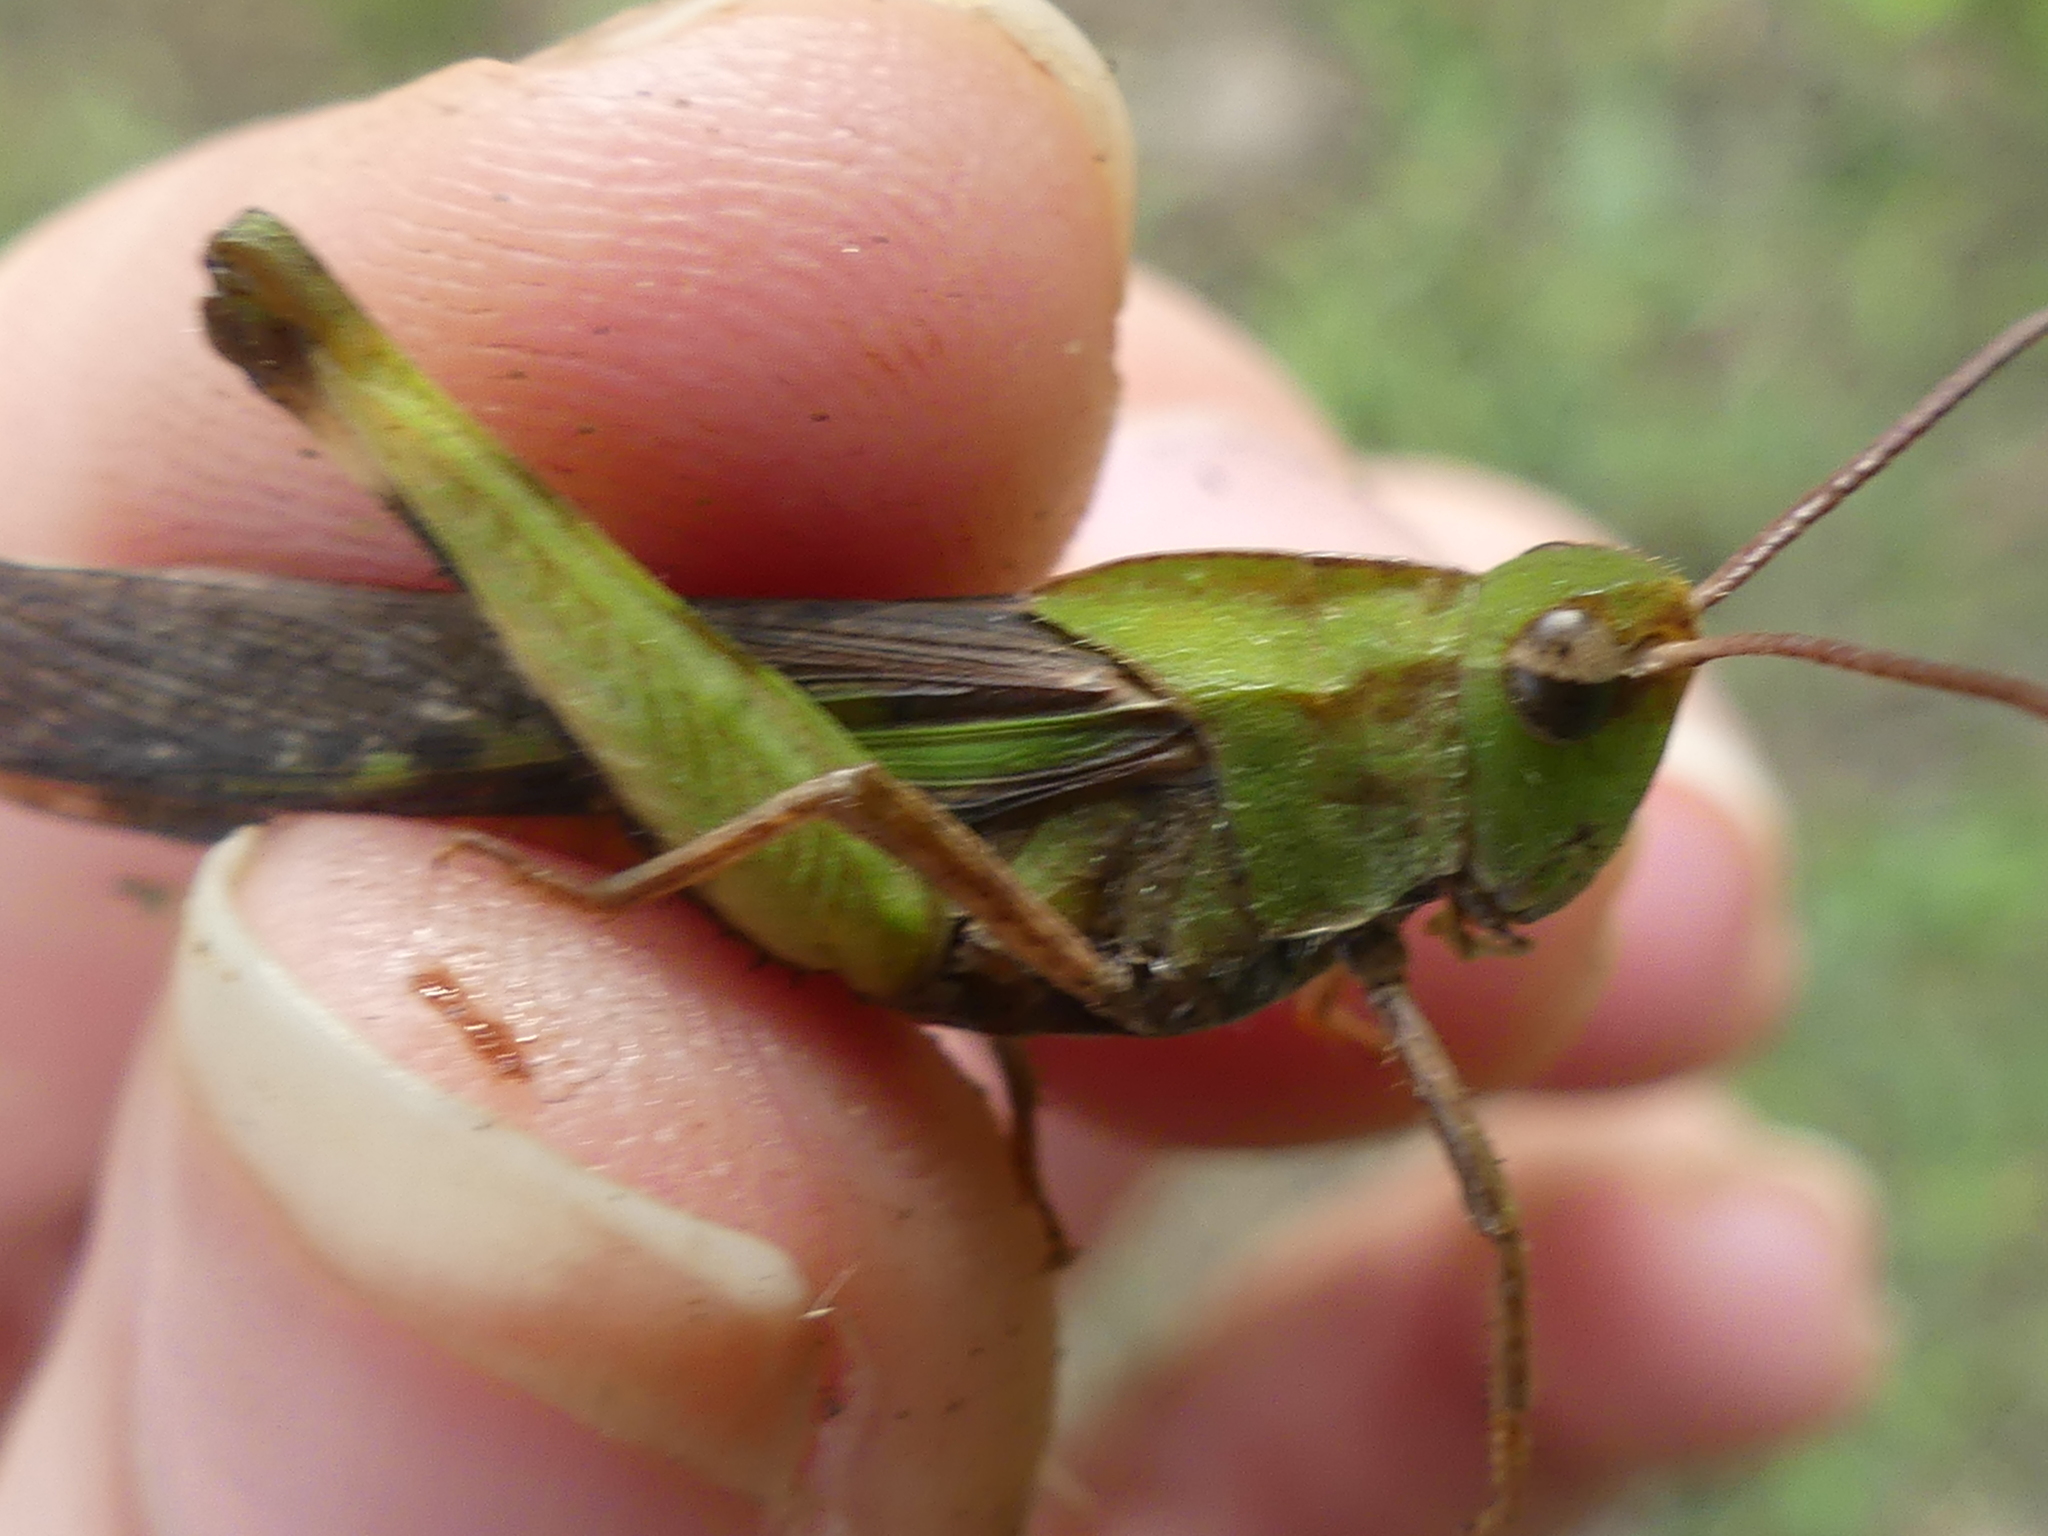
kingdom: Animalia
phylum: Arthropoda
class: Insecta
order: Orthoptera
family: Acrididae
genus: Chortophaga
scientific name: Chortophaga viridifasciata
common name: Green-striped grasshopper
